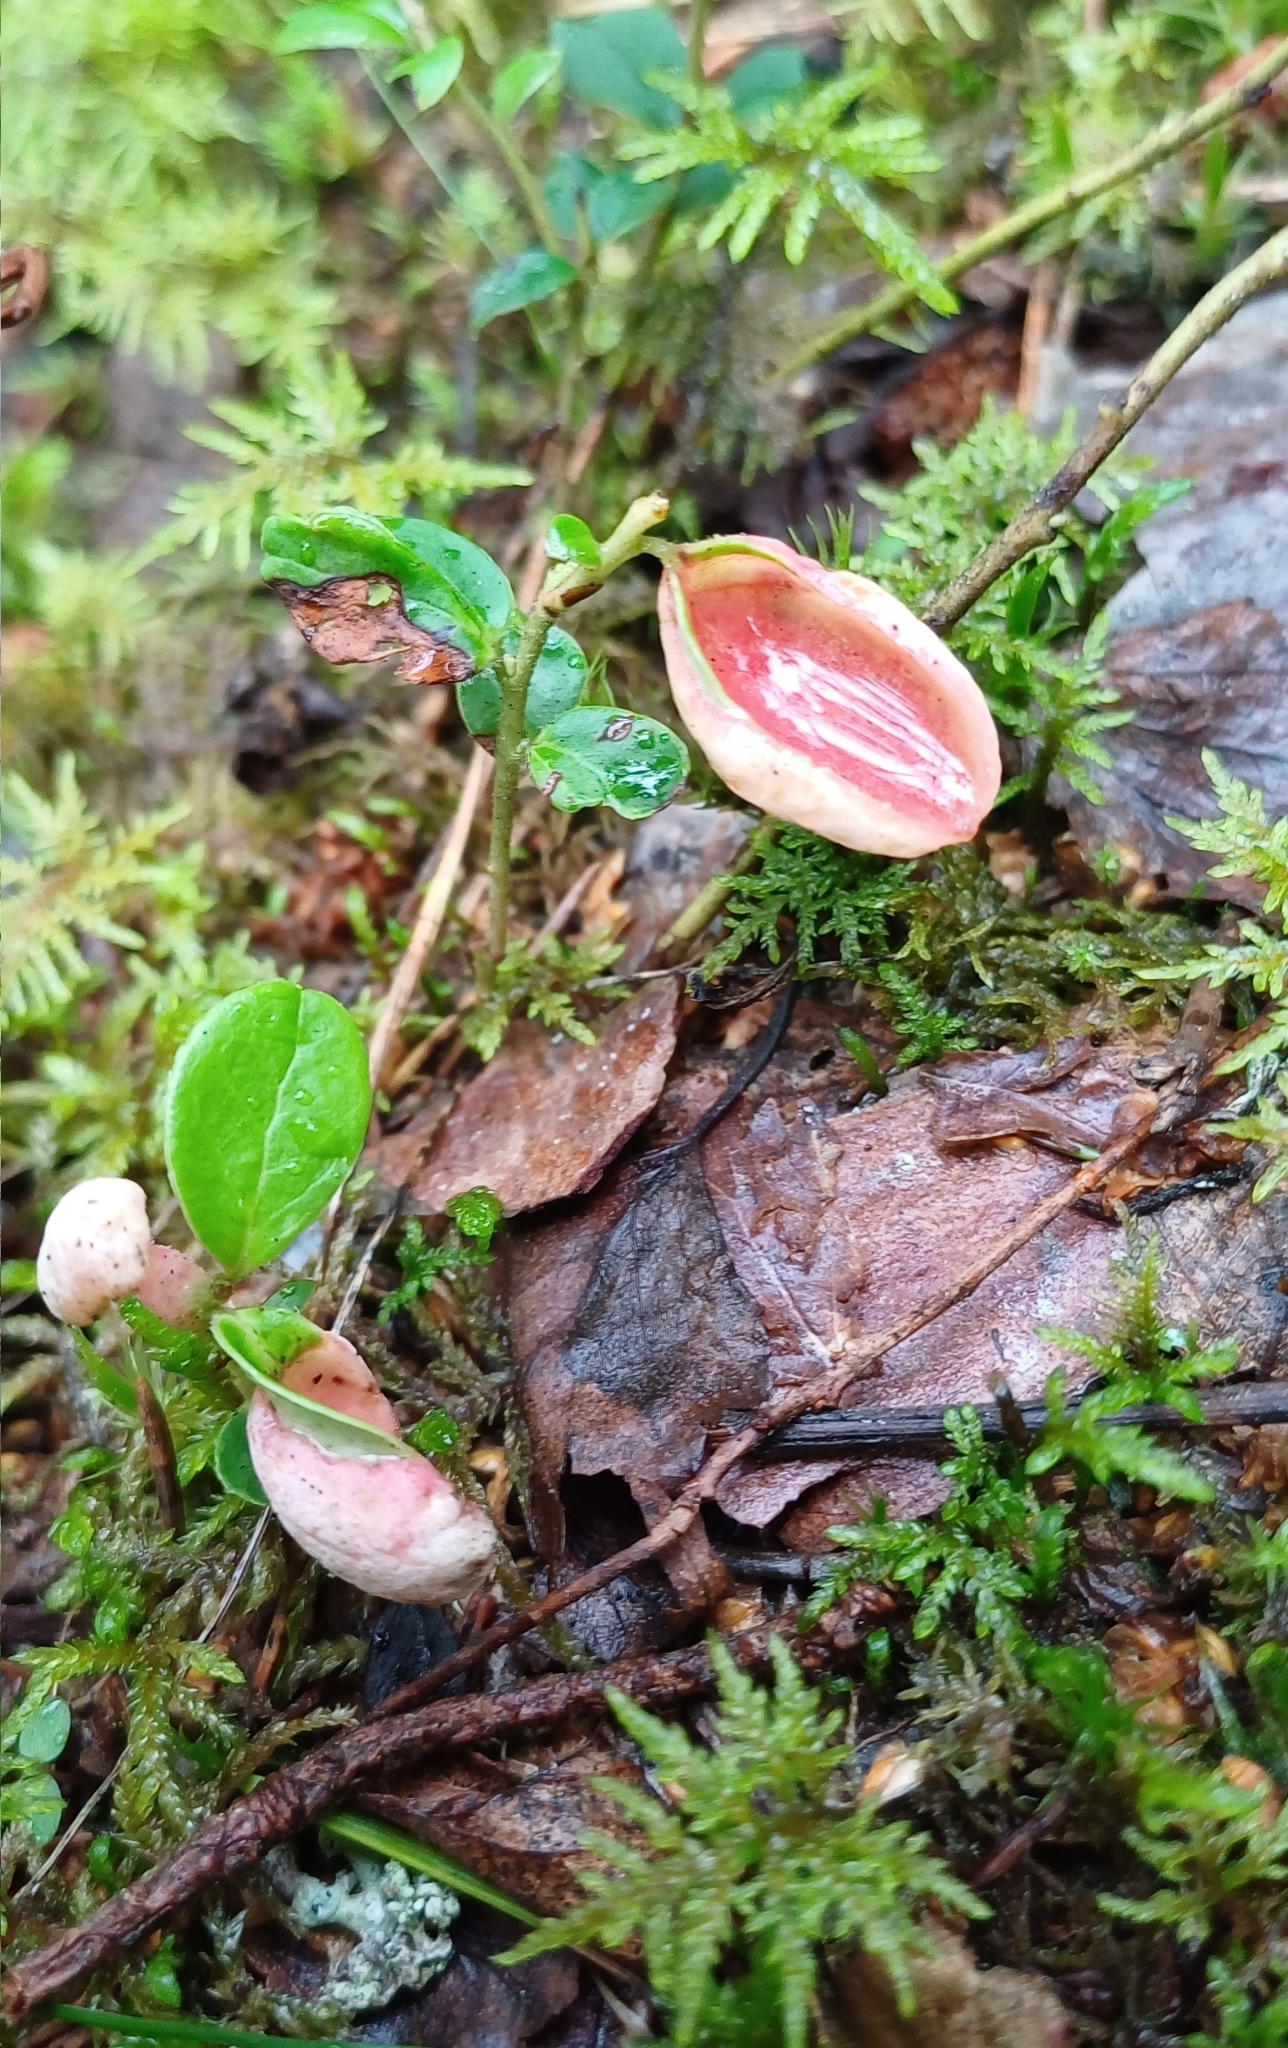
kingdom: Fungi
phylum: Basidiomycota
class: Exobasidiomycetes
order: Exobasidiales
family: Exobasidiaceae
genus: Exobasidium
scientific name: Exobasidium vaccinii
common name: Cowberry redleaf
